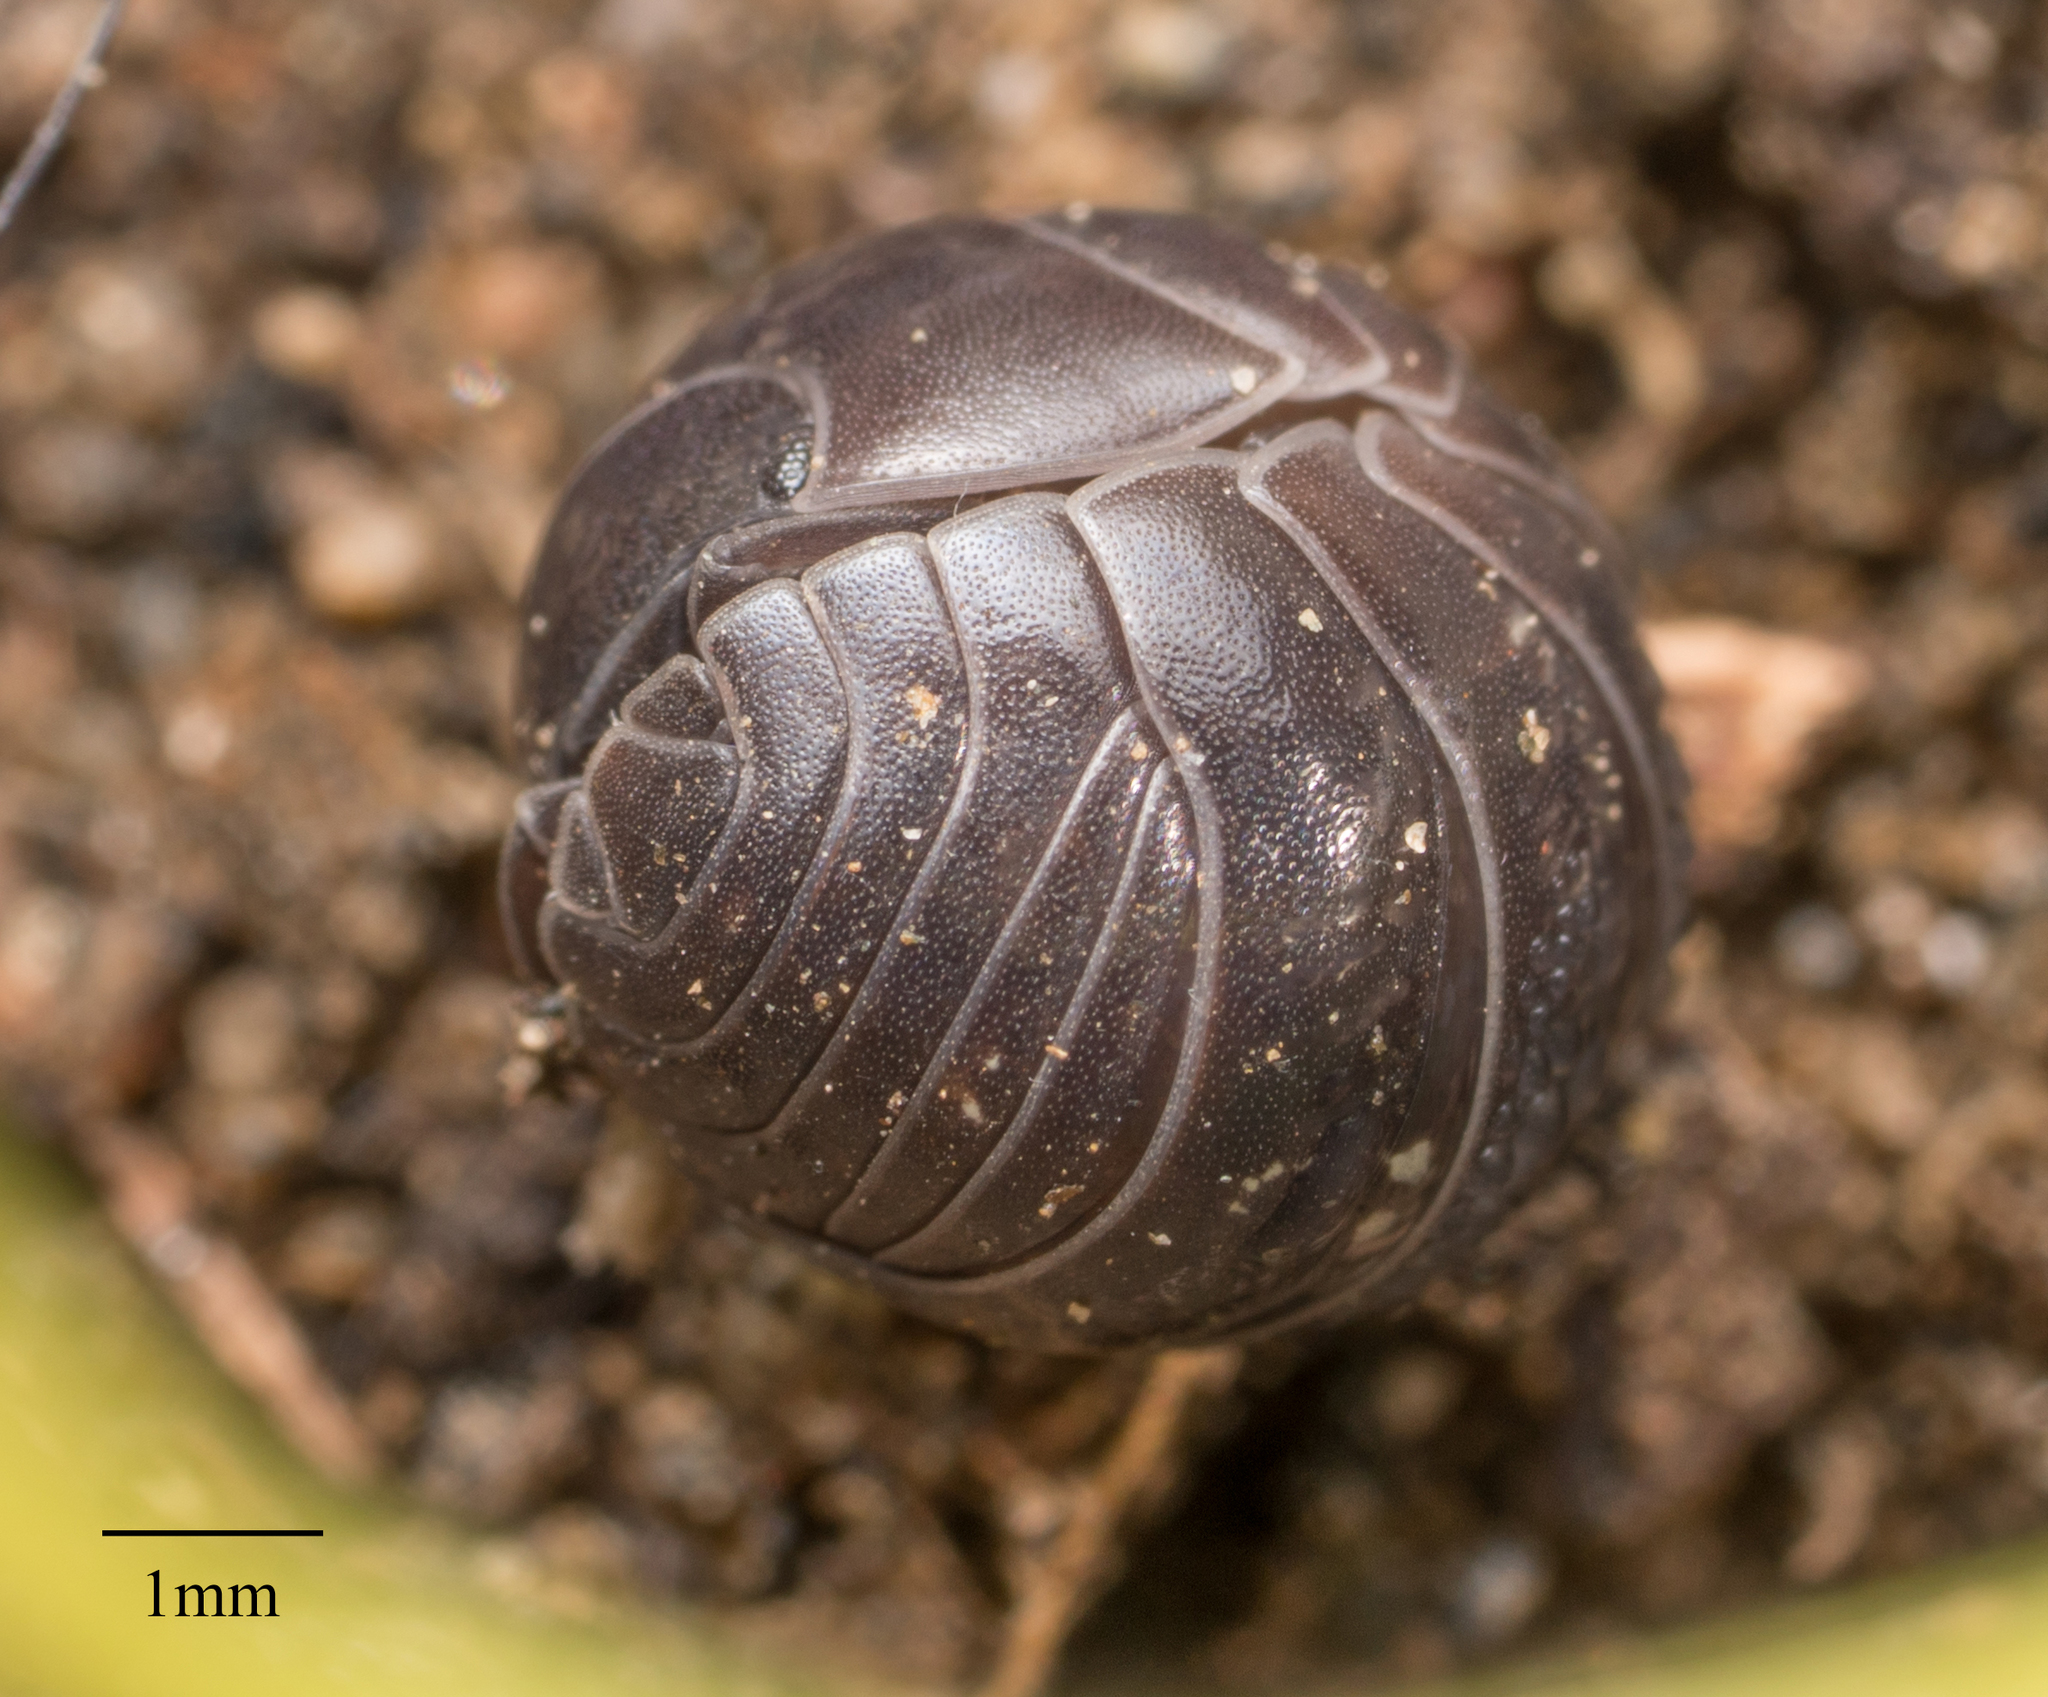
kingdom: Animalia
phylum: Arthropoda
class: Malacostraca
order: Isopoda
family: Armadillidiidae
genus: Armadillidium
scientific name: Armadillidium vulgare
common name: Common pill woodlouse
